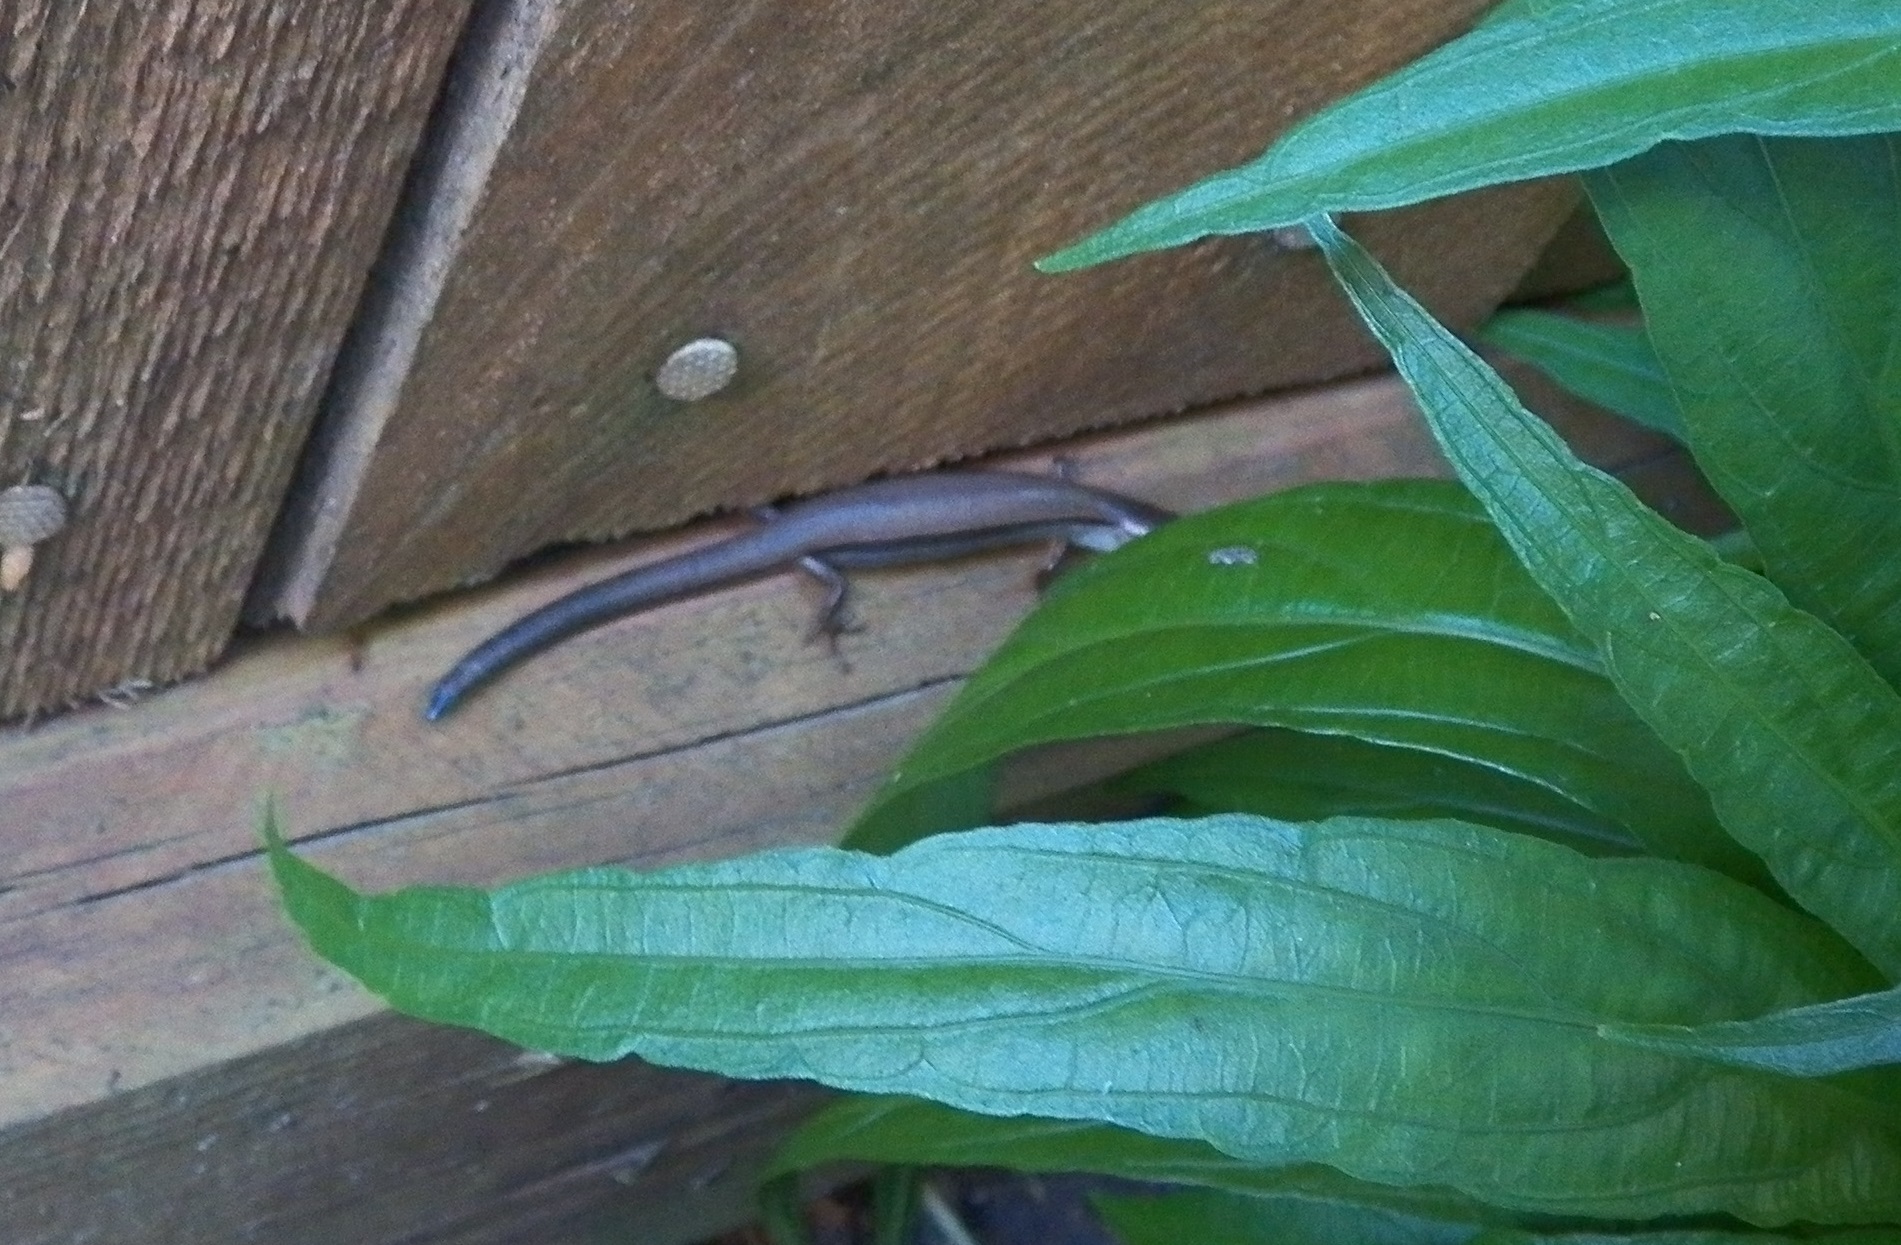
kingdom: Animalia
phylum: Chordata
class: Squamata
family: Scincidae
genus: Scincella
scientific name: Scincella lateralis
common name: Ground skink
